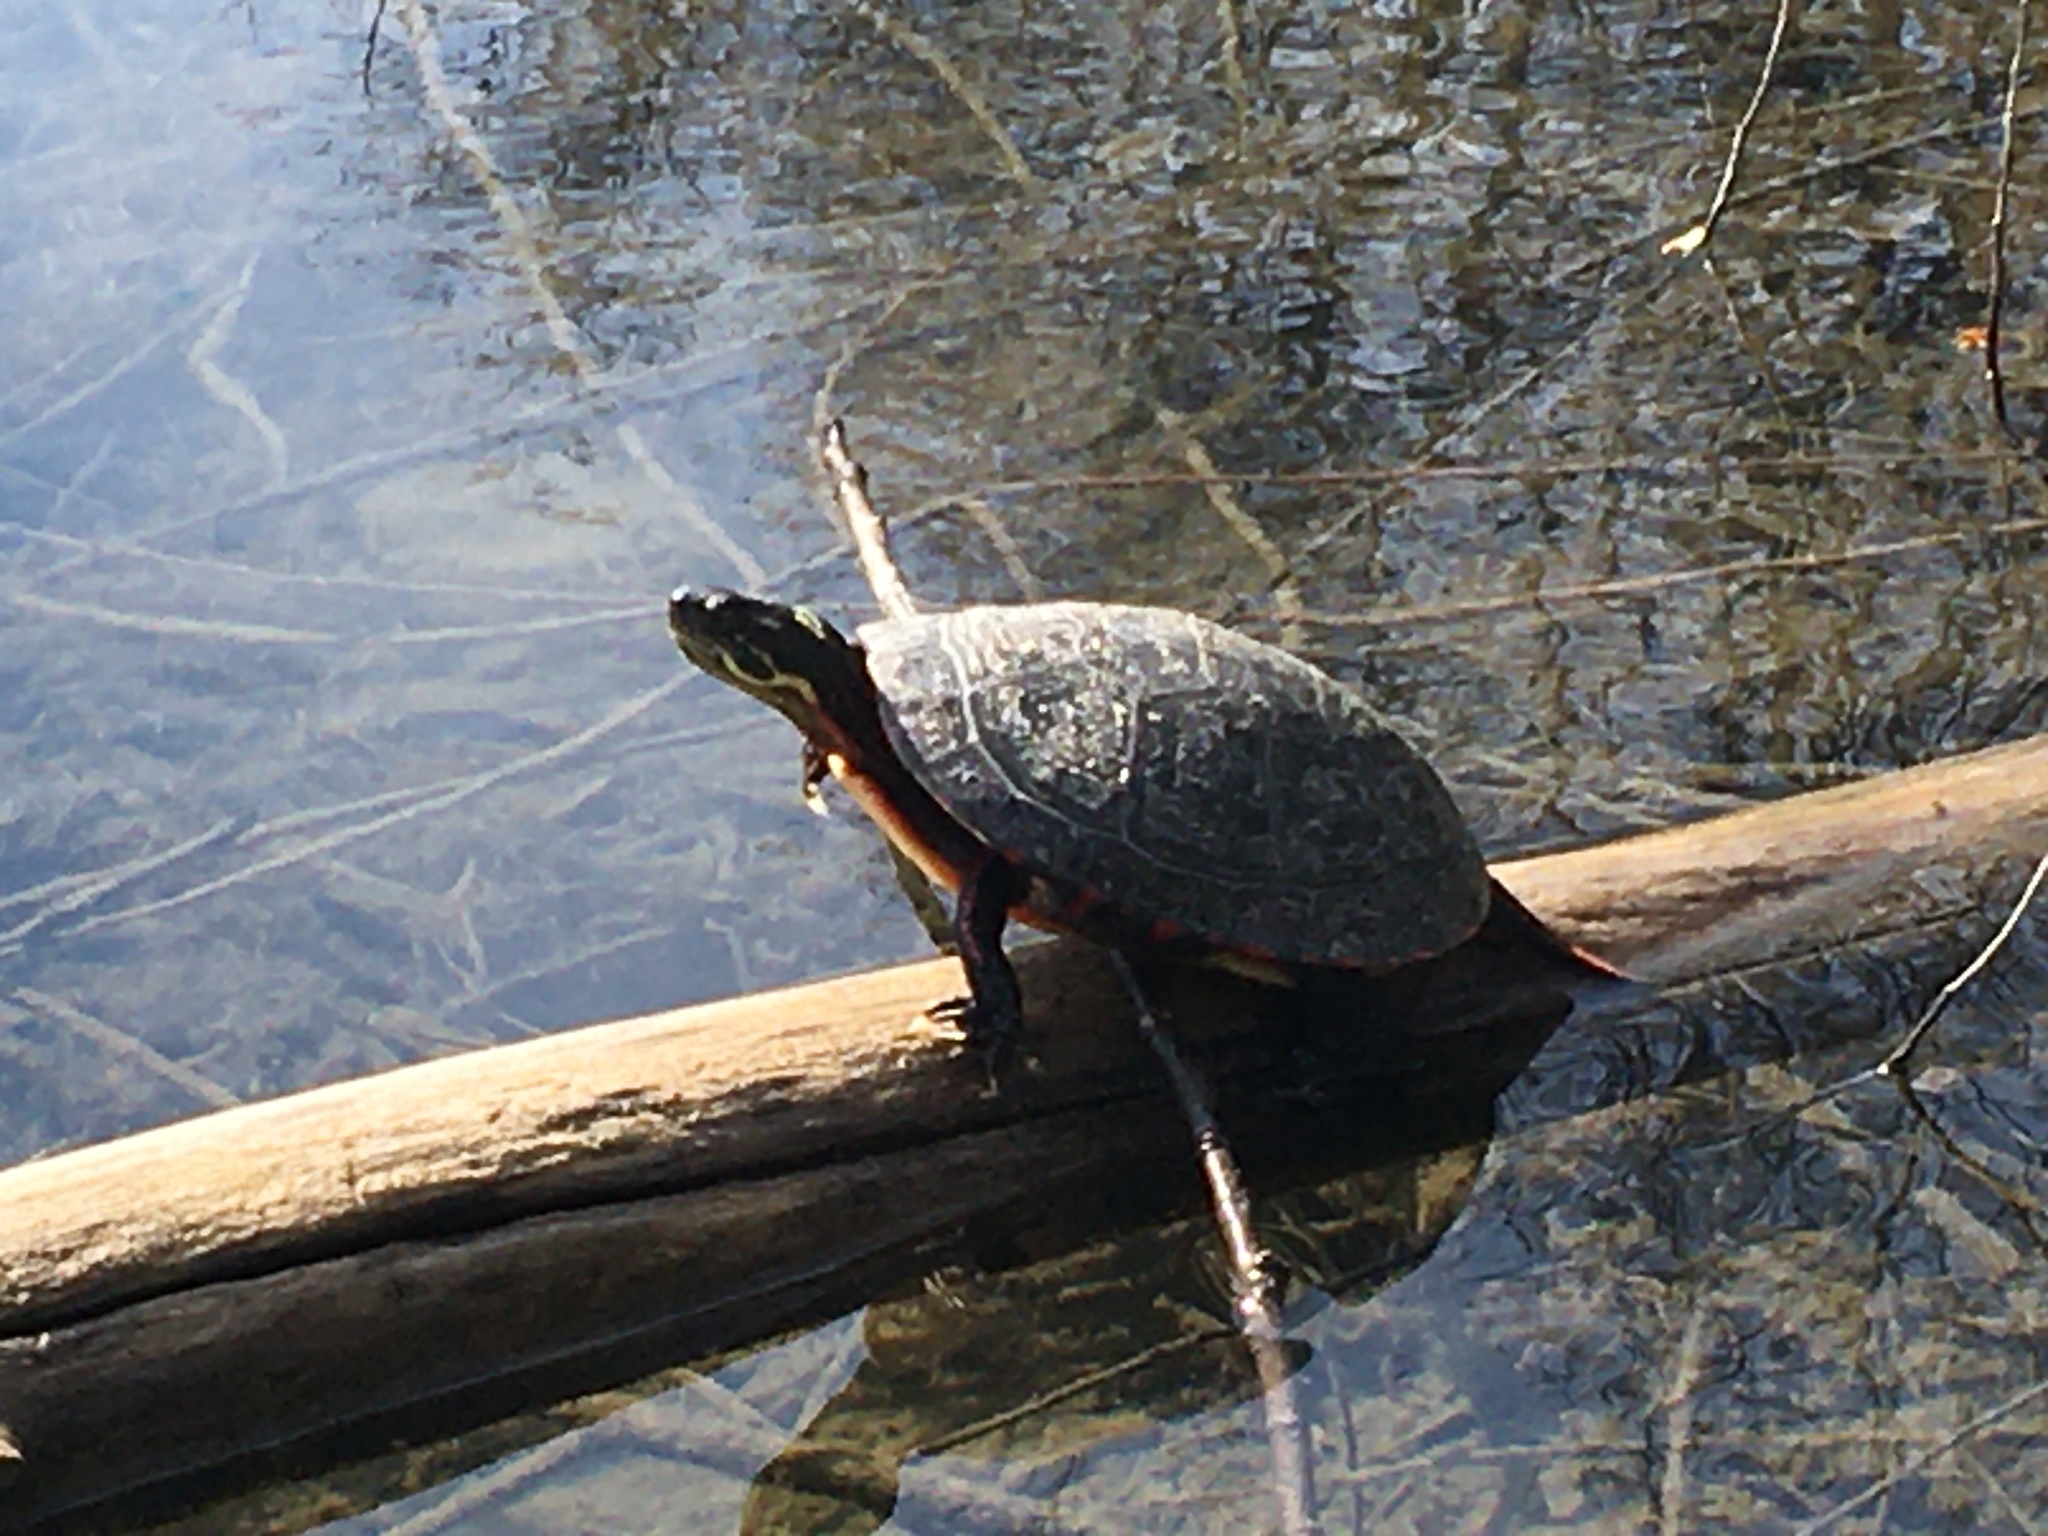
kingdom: Animalia
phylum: Chordata
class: Testudines
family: Emydidae
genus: Chrysemys
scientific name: Chrysemys picta
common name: Painted turtle
